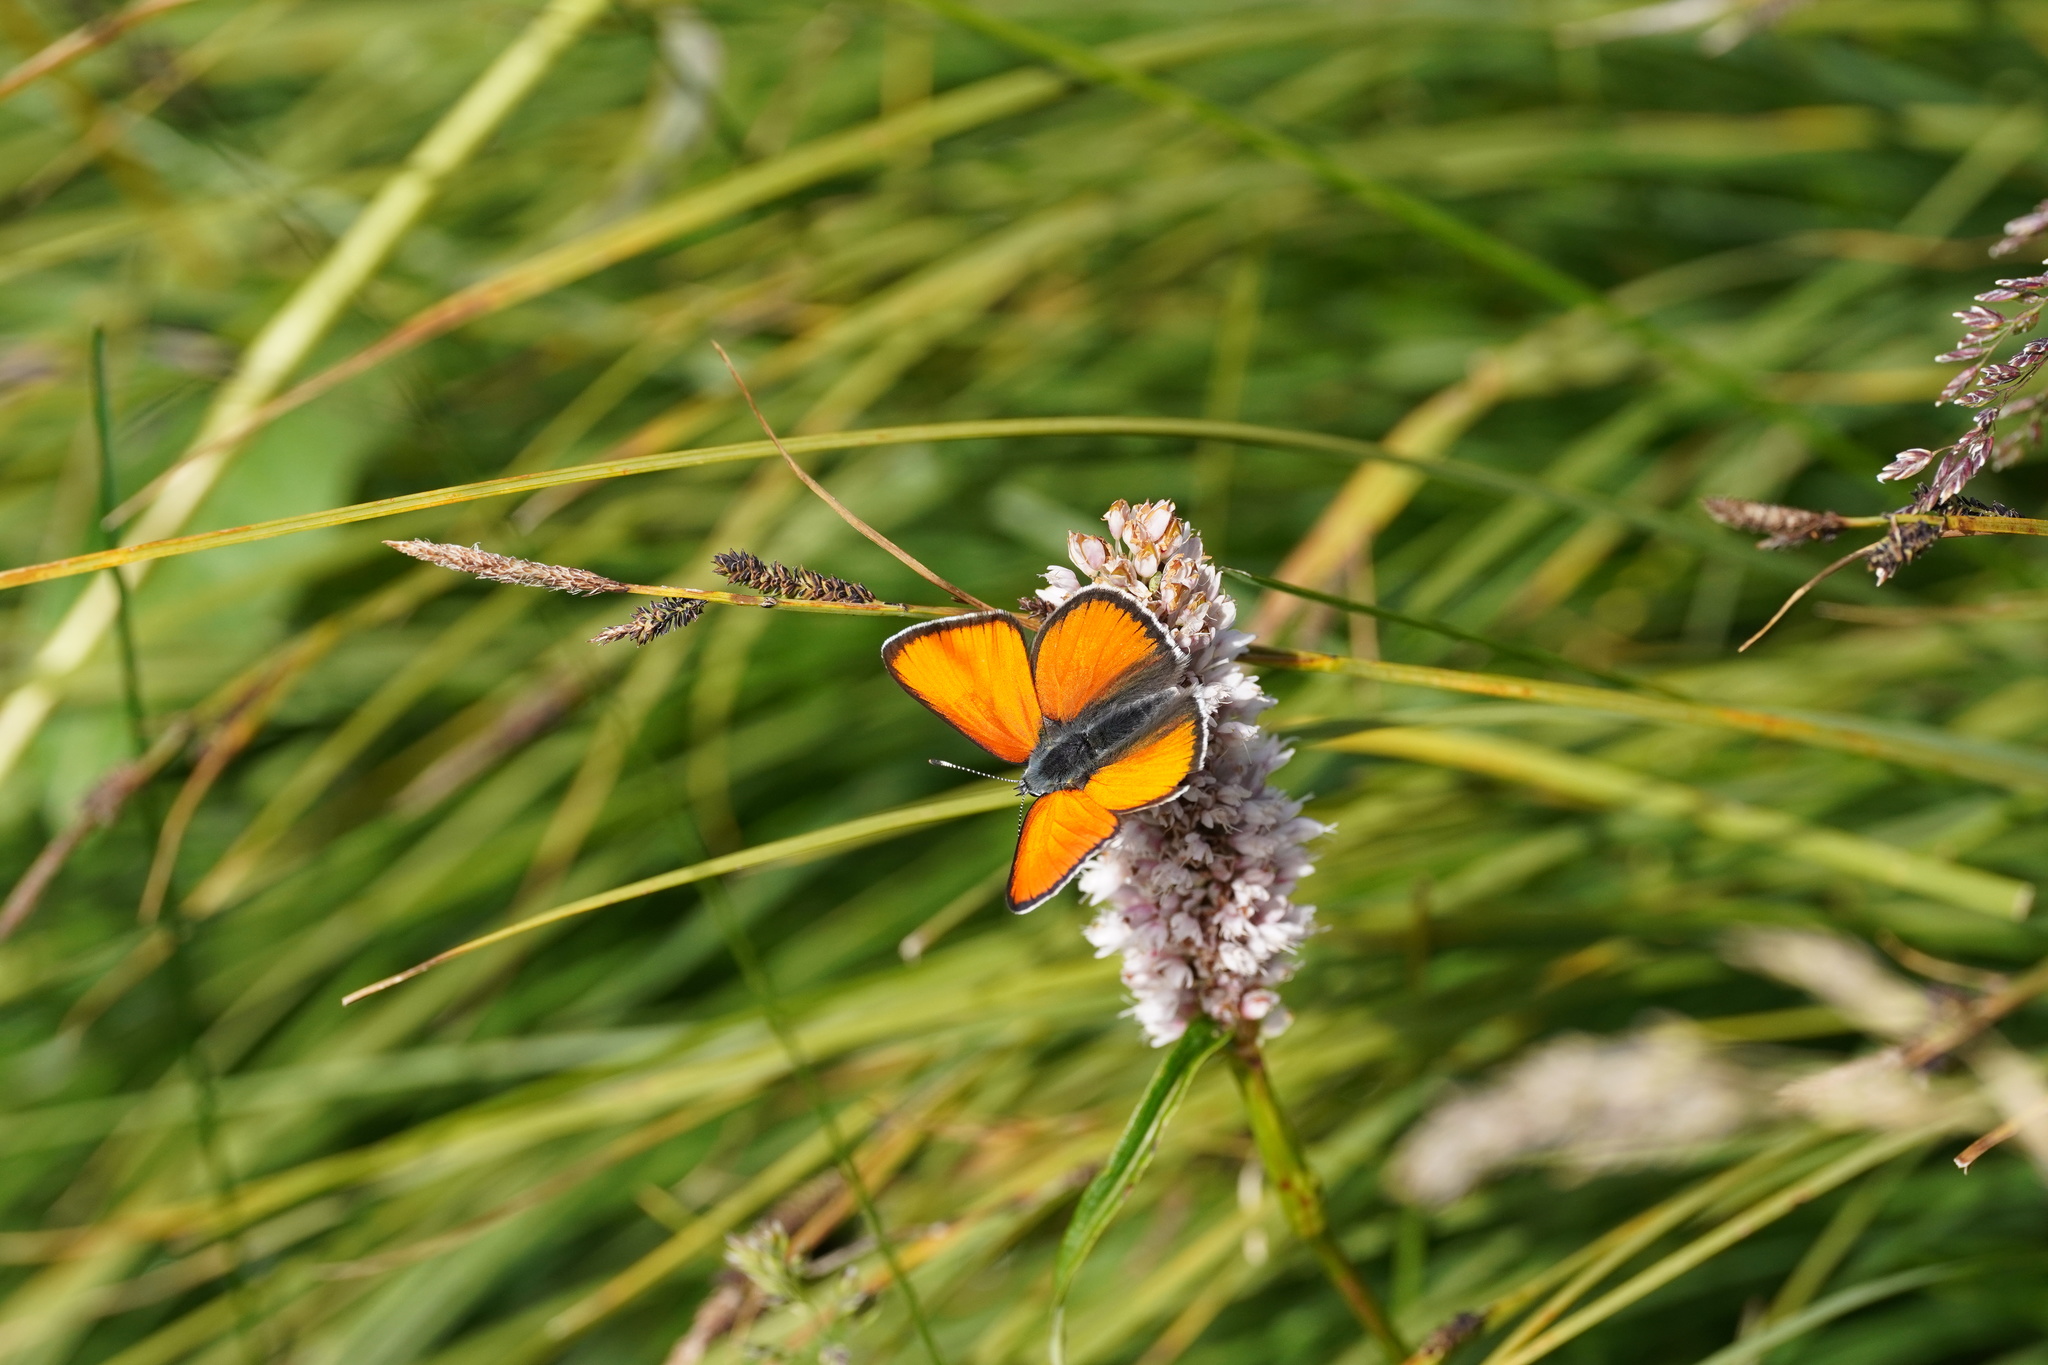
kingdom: Animalia
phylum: Arthropoda
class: Insecta
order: Lepidoptera
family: Lycaenidae
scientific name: Lycaenidae
